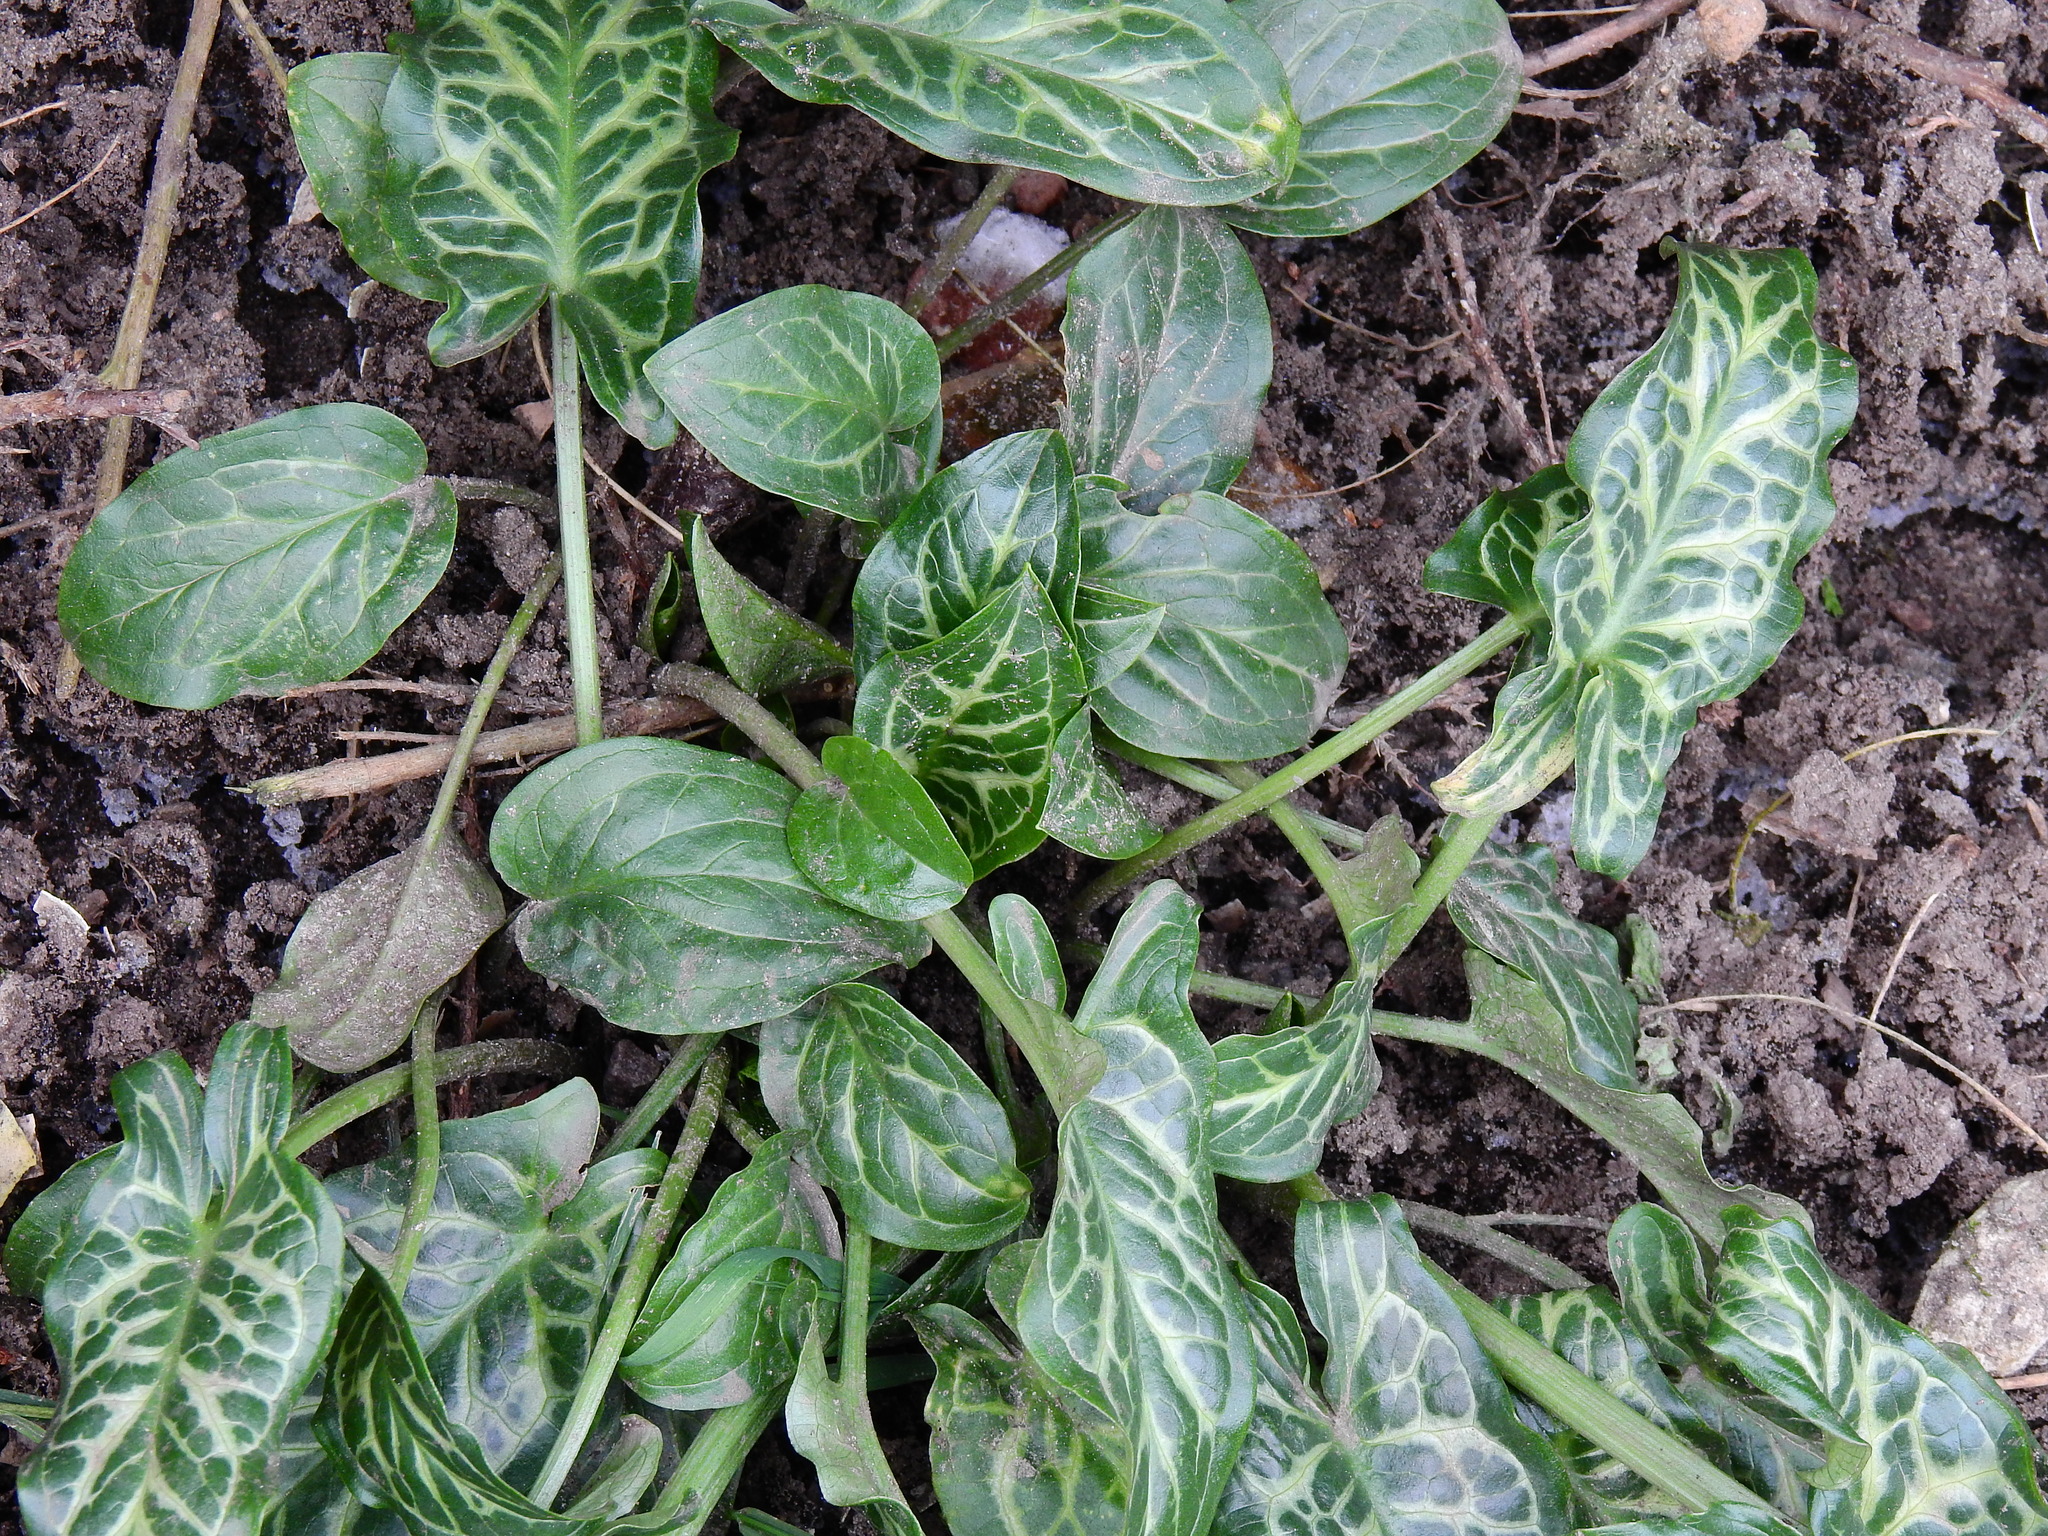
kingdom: Plantae
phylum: Tracheophyta
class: Liliopsida
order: Alismatales
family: Araceae
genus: Arum
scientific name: Arum italicum
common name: Italian lords-and-ladies
